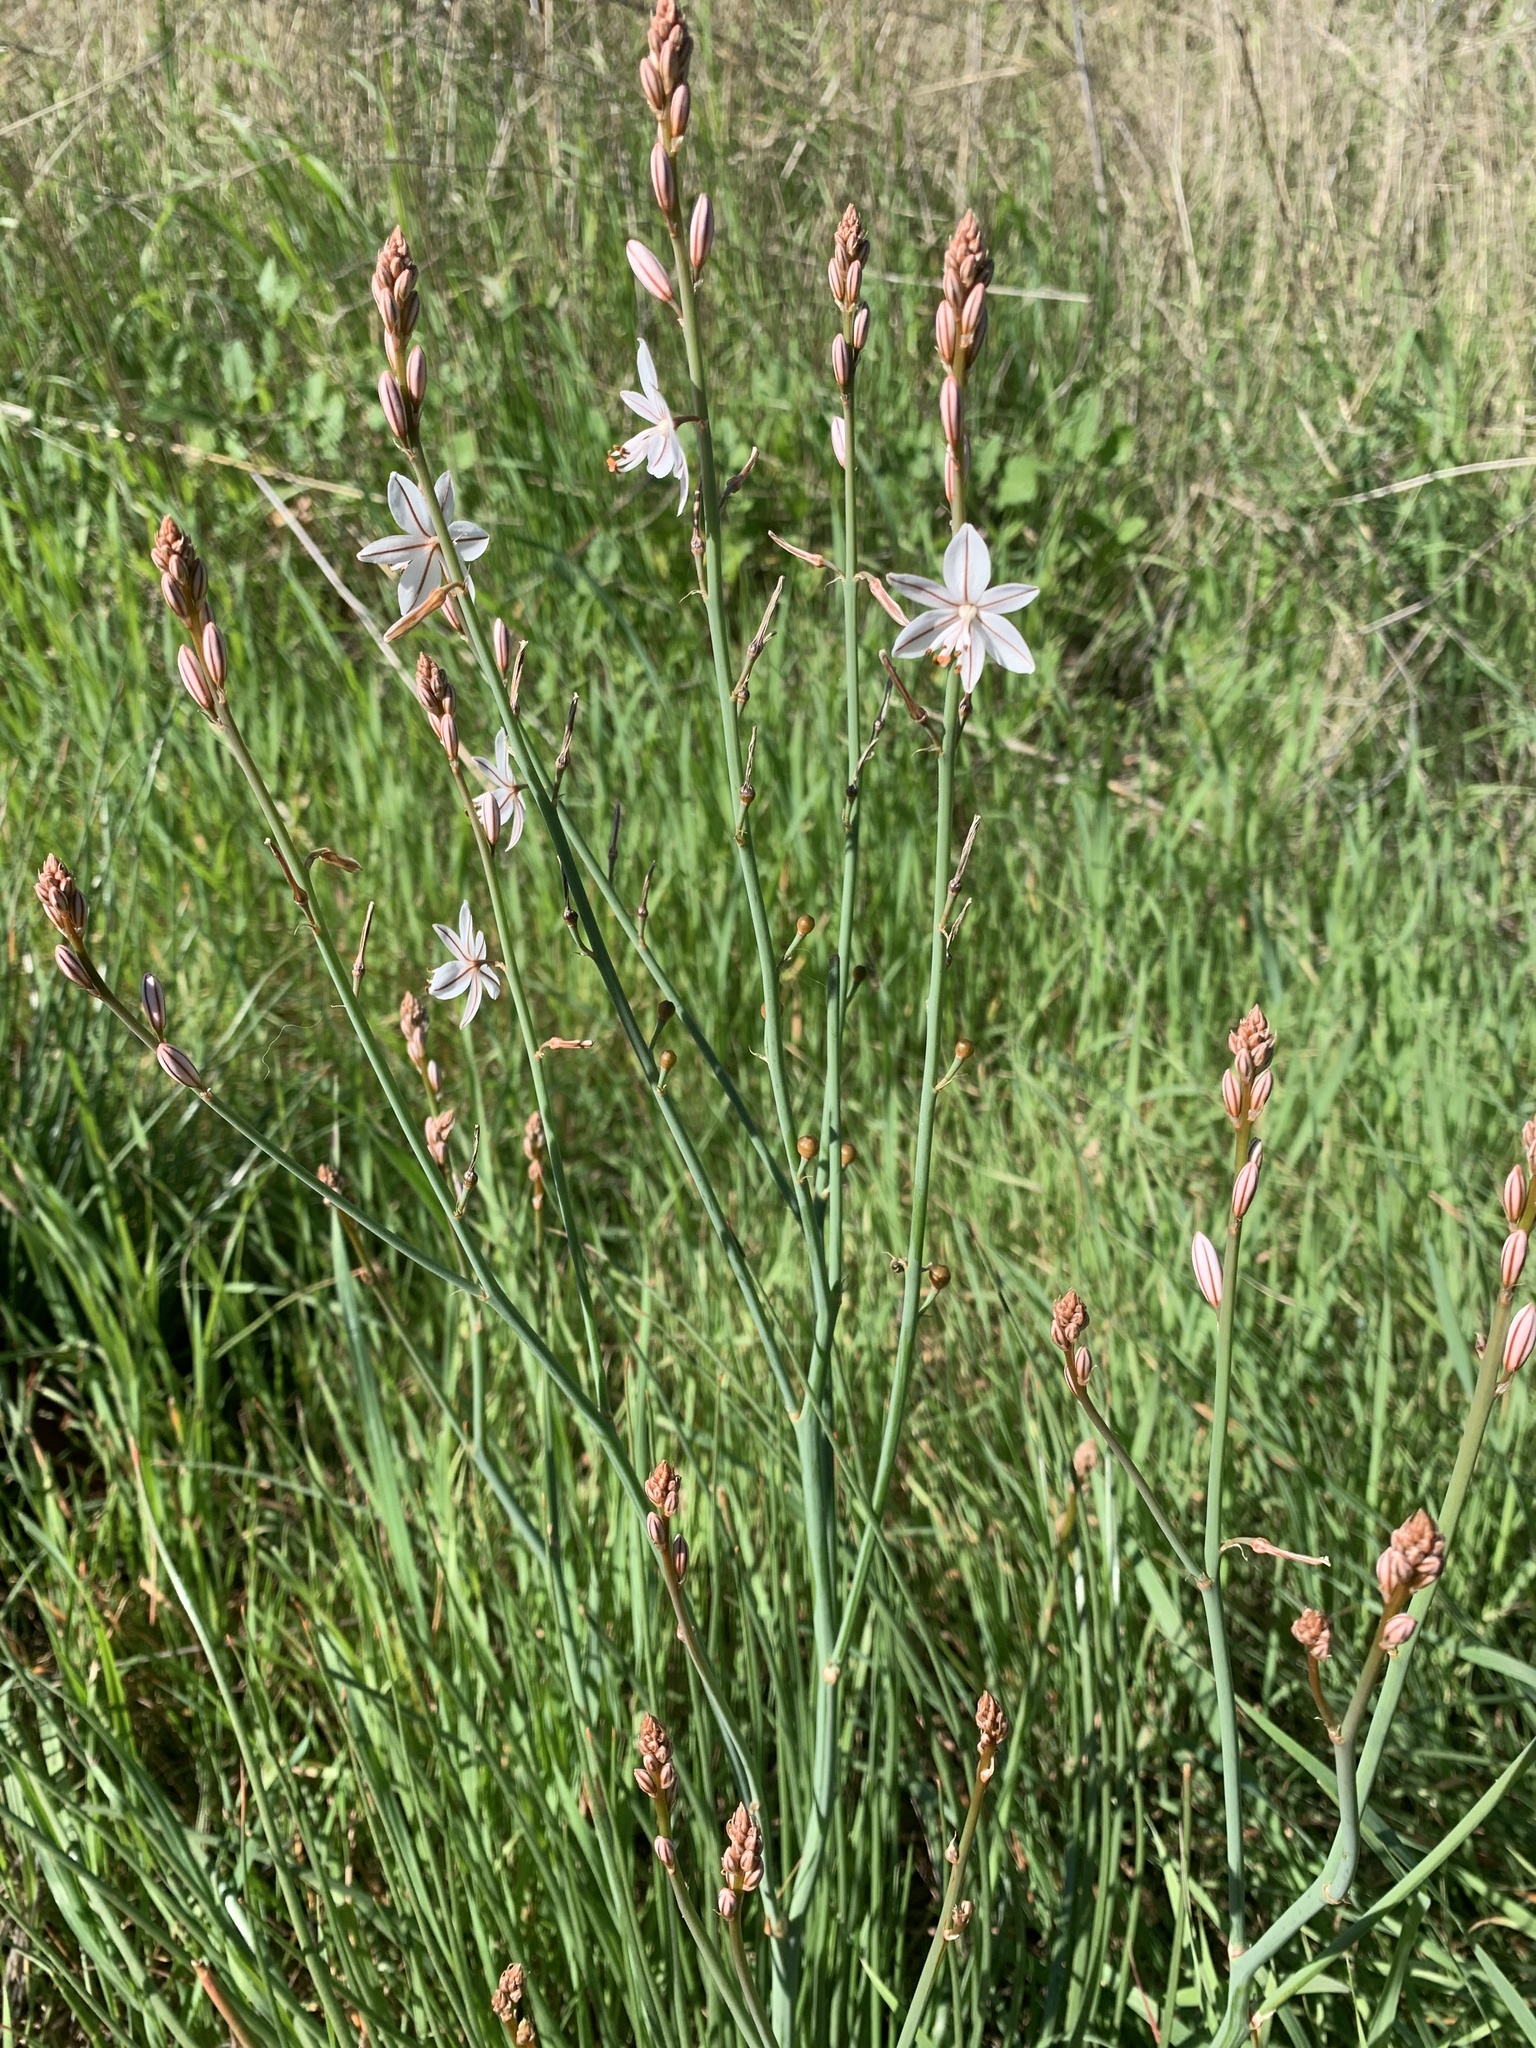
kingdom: Plantae
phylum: Tracheophyta
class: Liliopsida
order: Asparagales
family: Asphodelaceae
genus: Asphodelus
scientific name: Asphodelus fistulosus
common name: Onionweed
